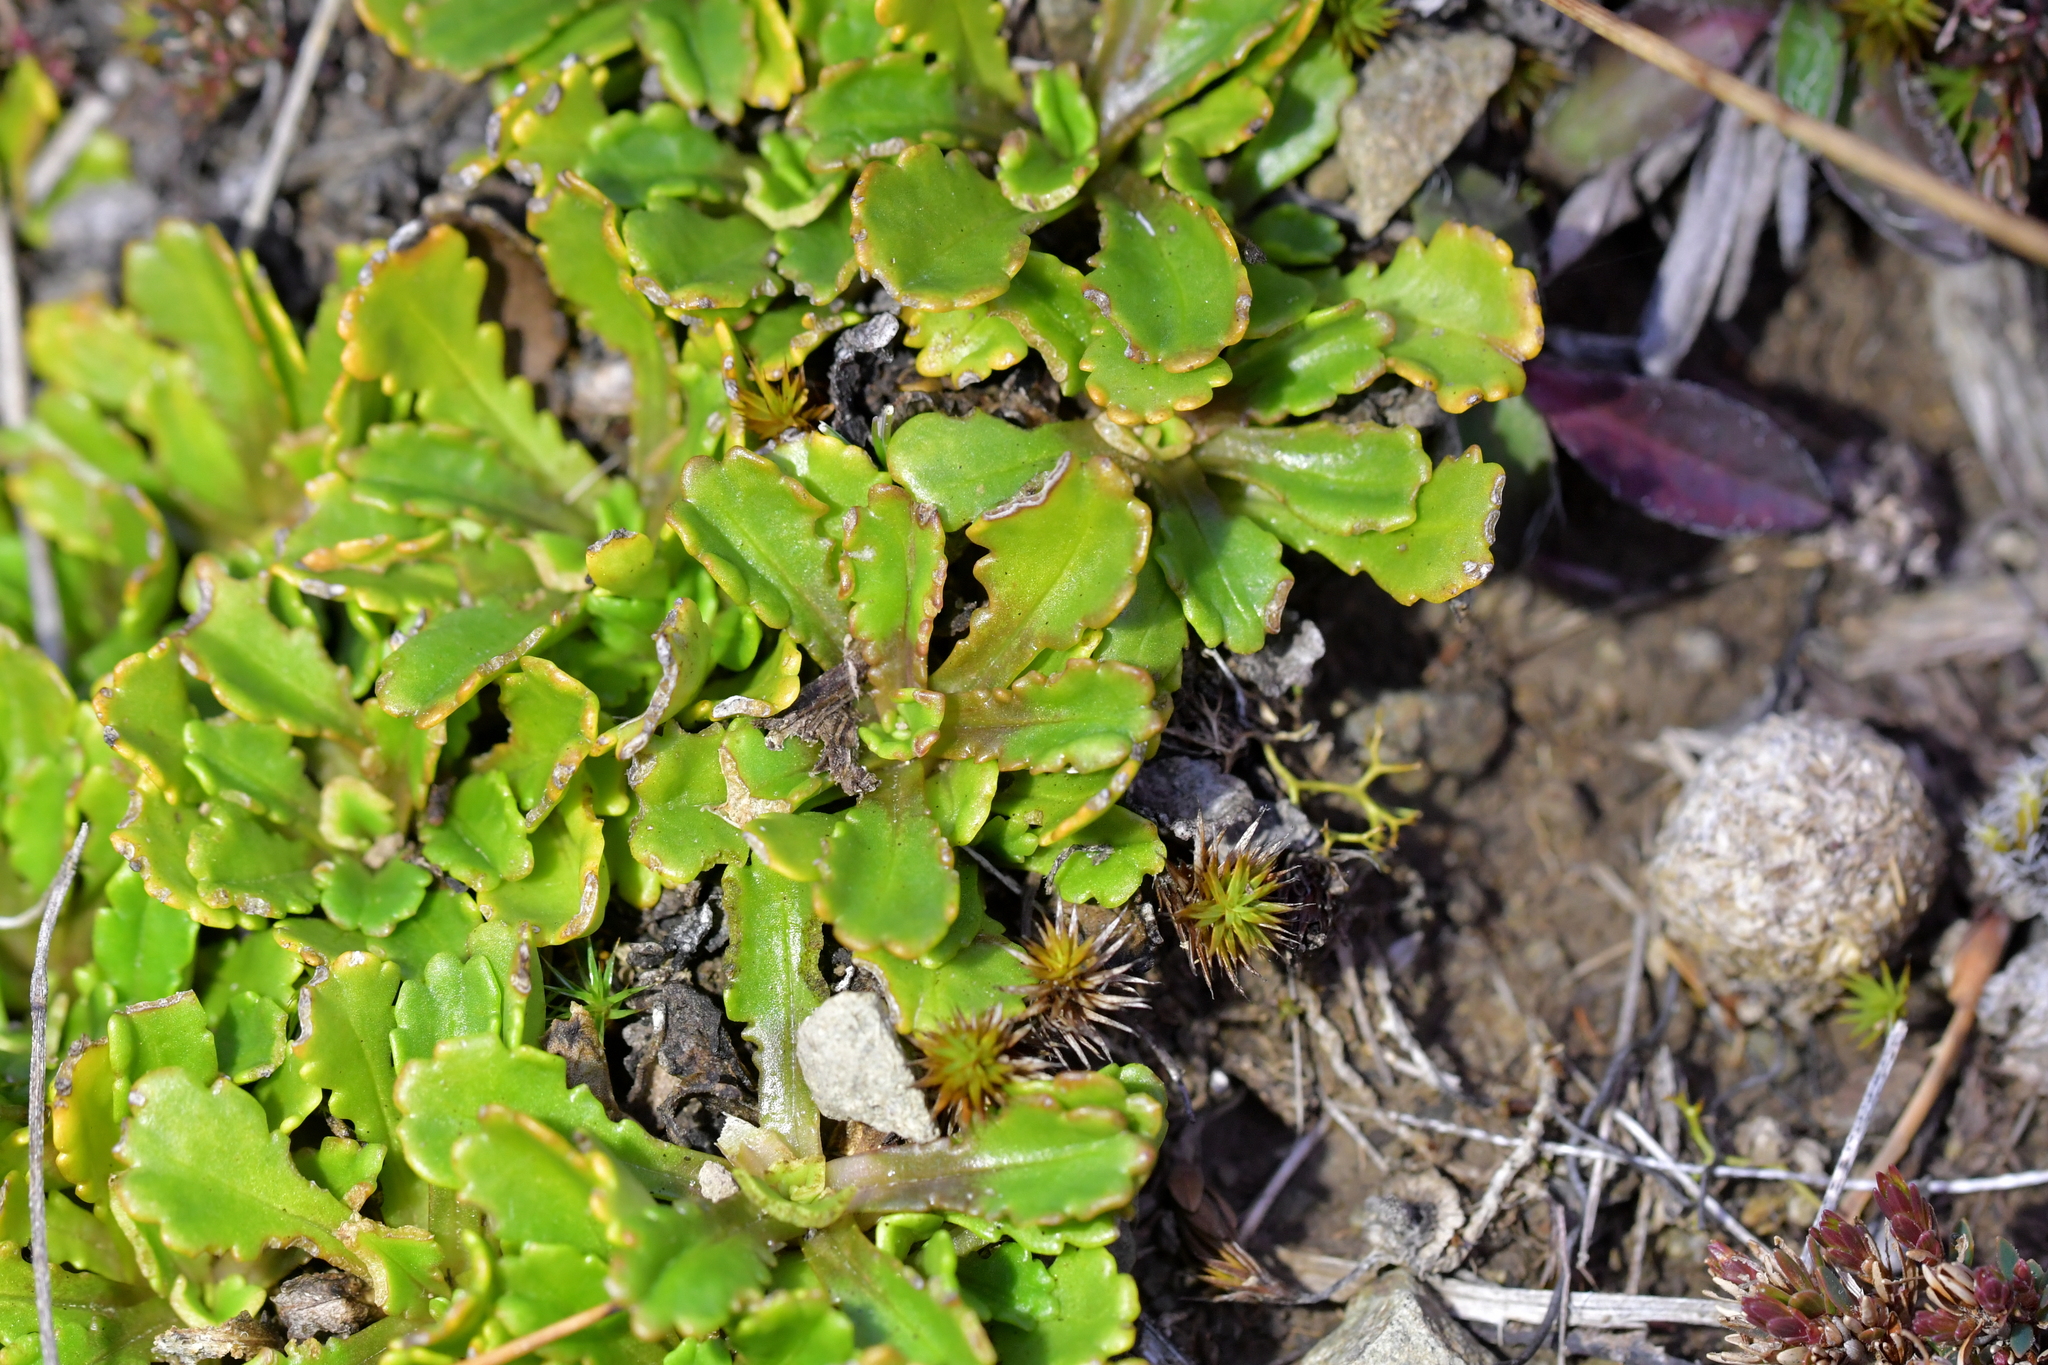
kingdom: Plantae
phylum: Tracheophyta
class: Magnoliopsida
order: Asterales
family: Asteraceae
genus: Brachyscome
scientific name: Brachyscome sinclairii
